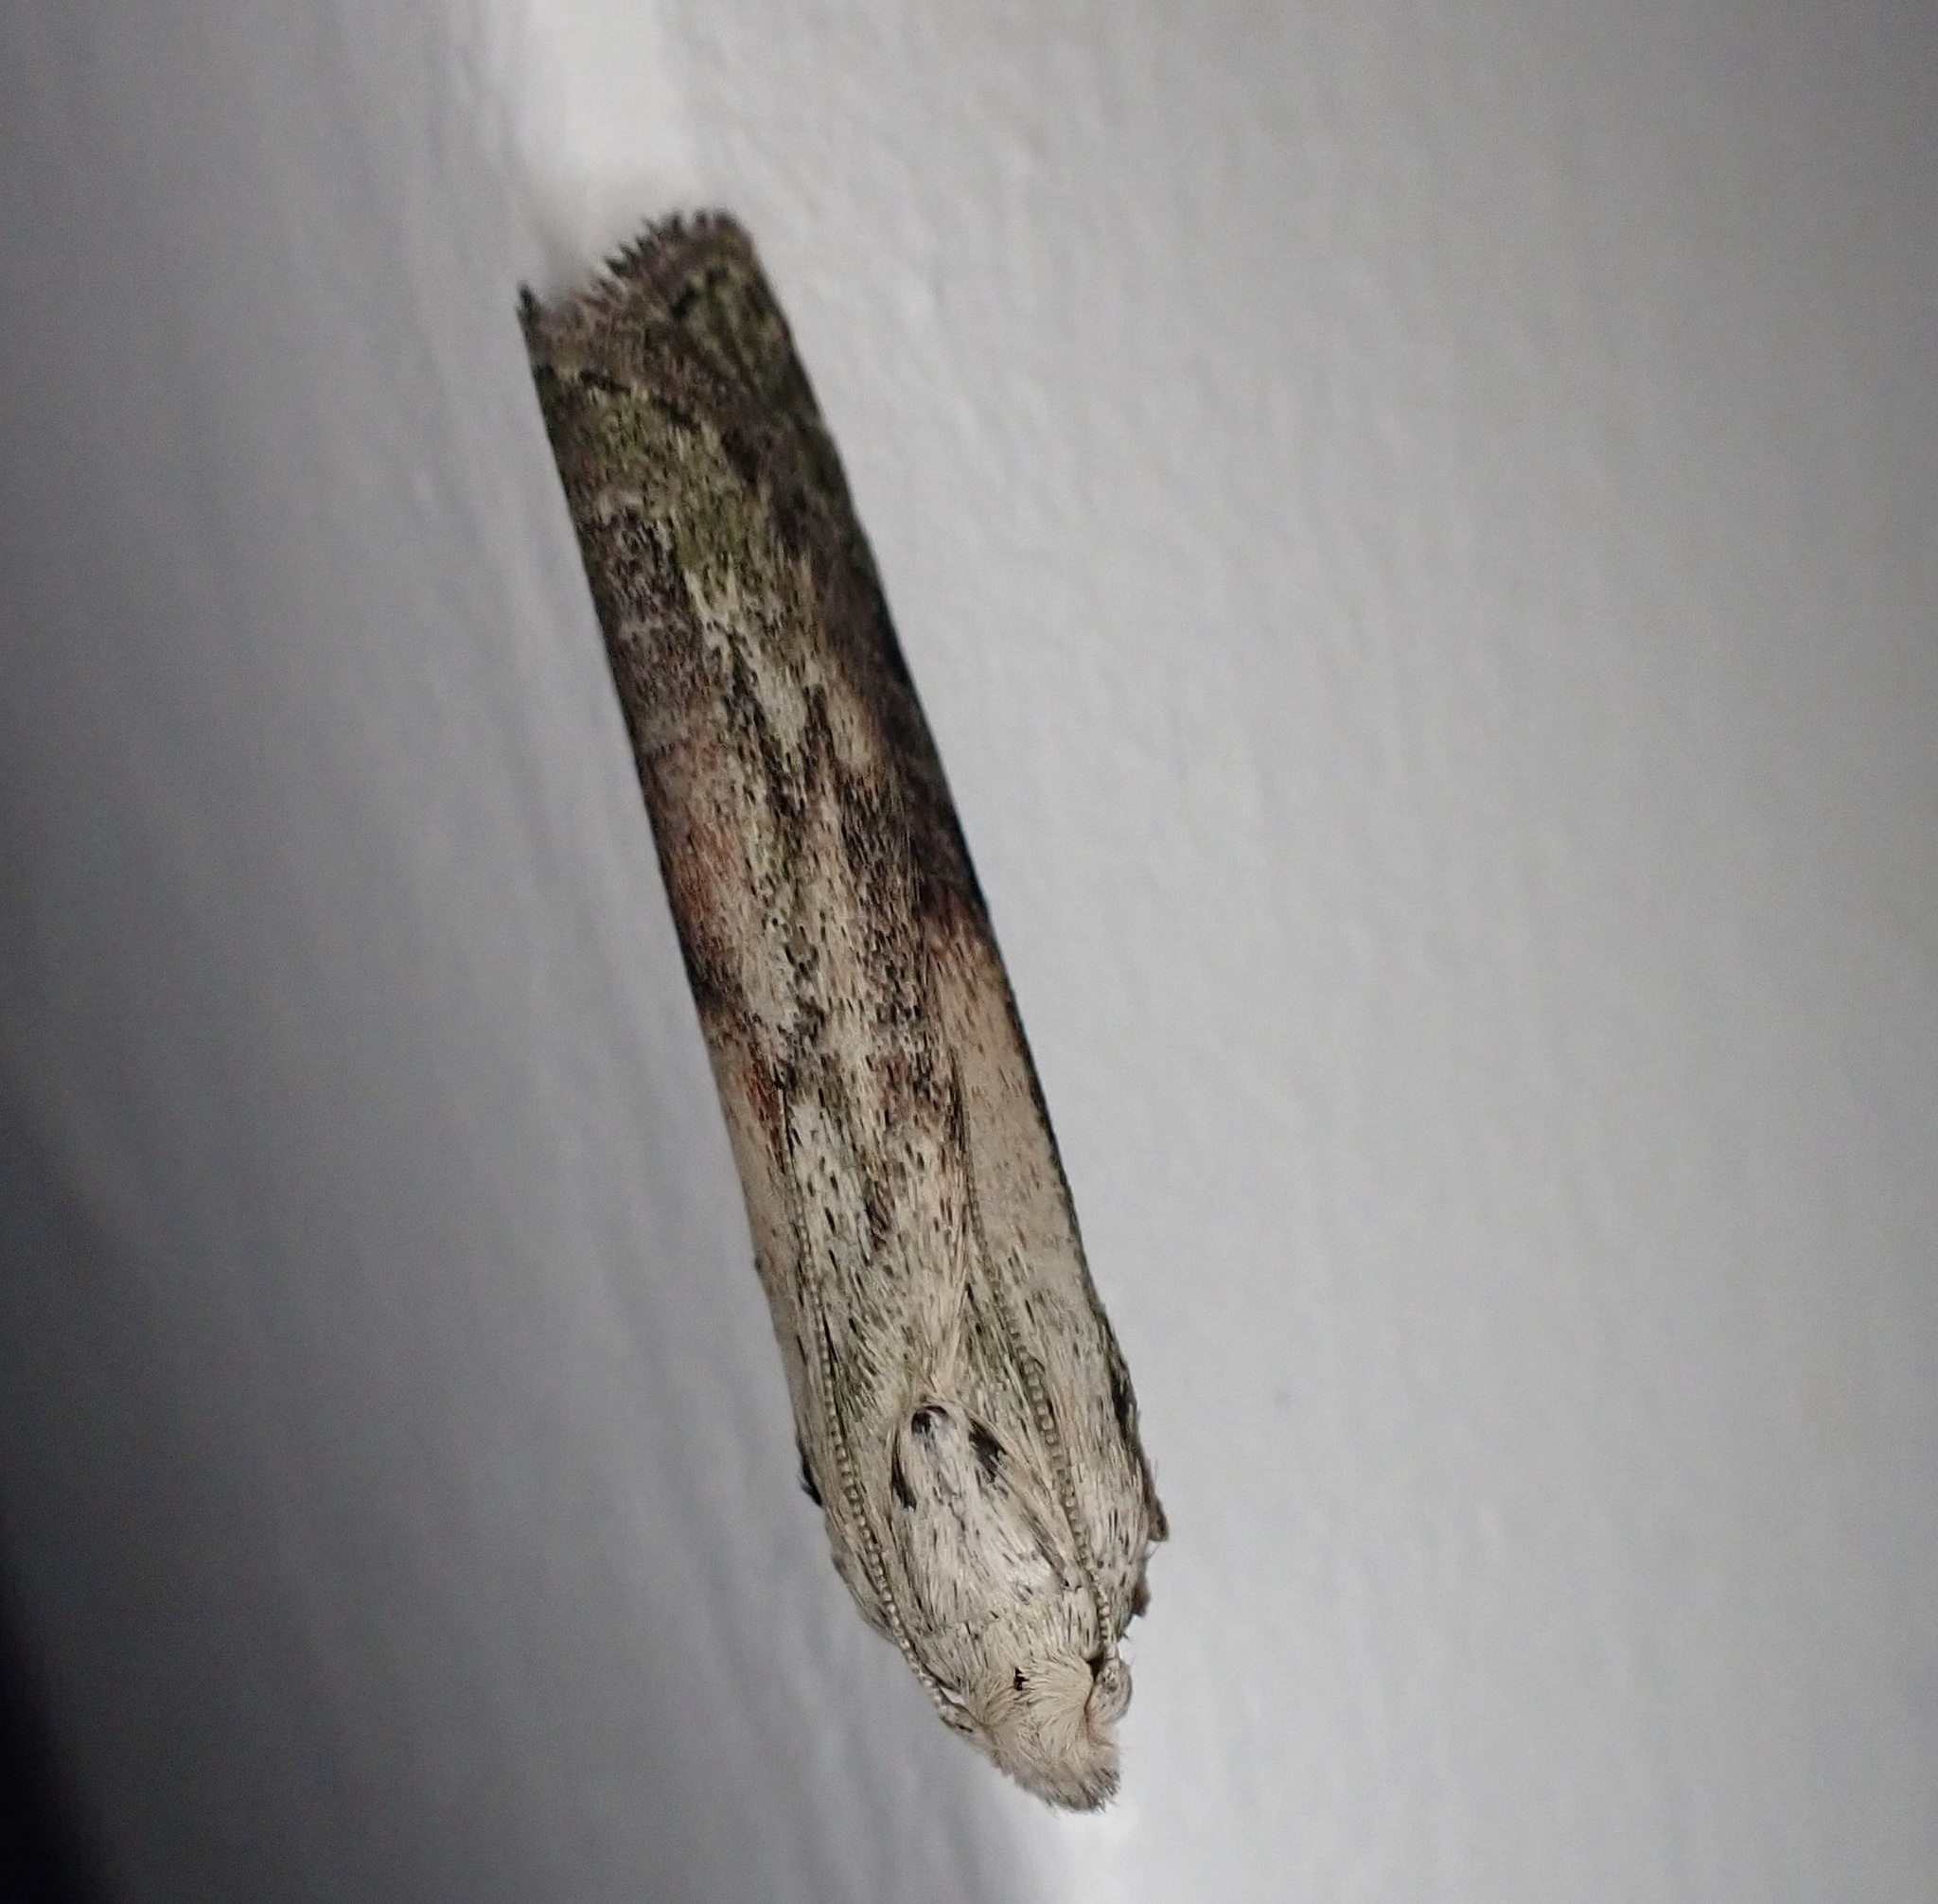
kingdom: Animalia
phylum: Arthropoda
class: Insecta
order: Lepidoptera
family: Pyralidae
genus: Aphomia
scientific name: Aphomia sociella
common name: Bee moth
